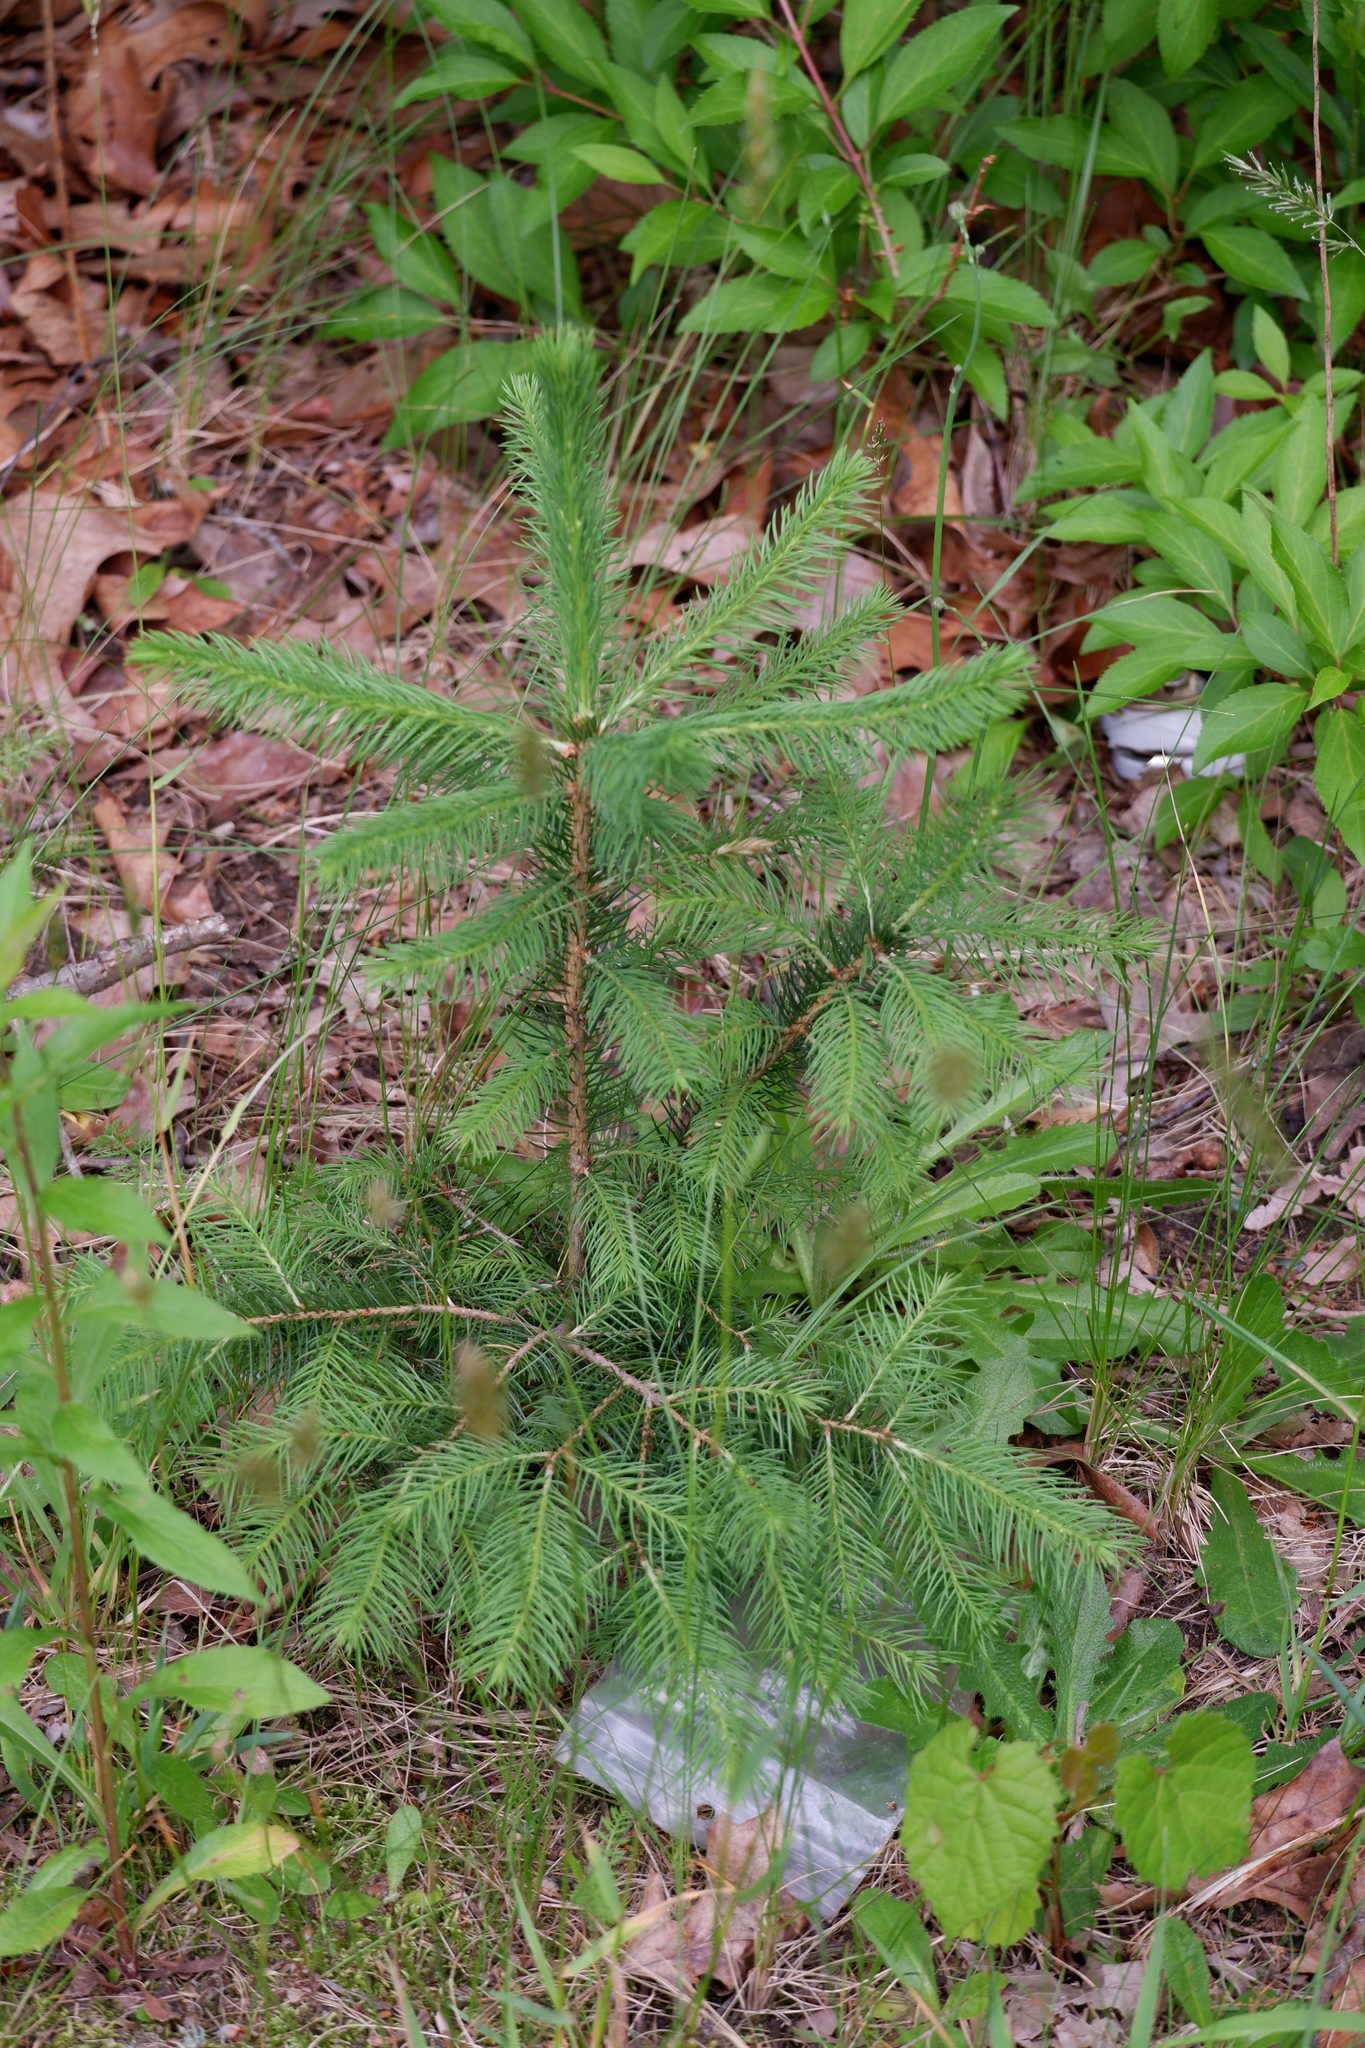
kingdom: Plantae
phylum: Tracheophyta
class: Pinopsida
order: Pinales
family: Pinaceae
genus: Picea
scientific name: Picea abies
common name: Norway spruce
